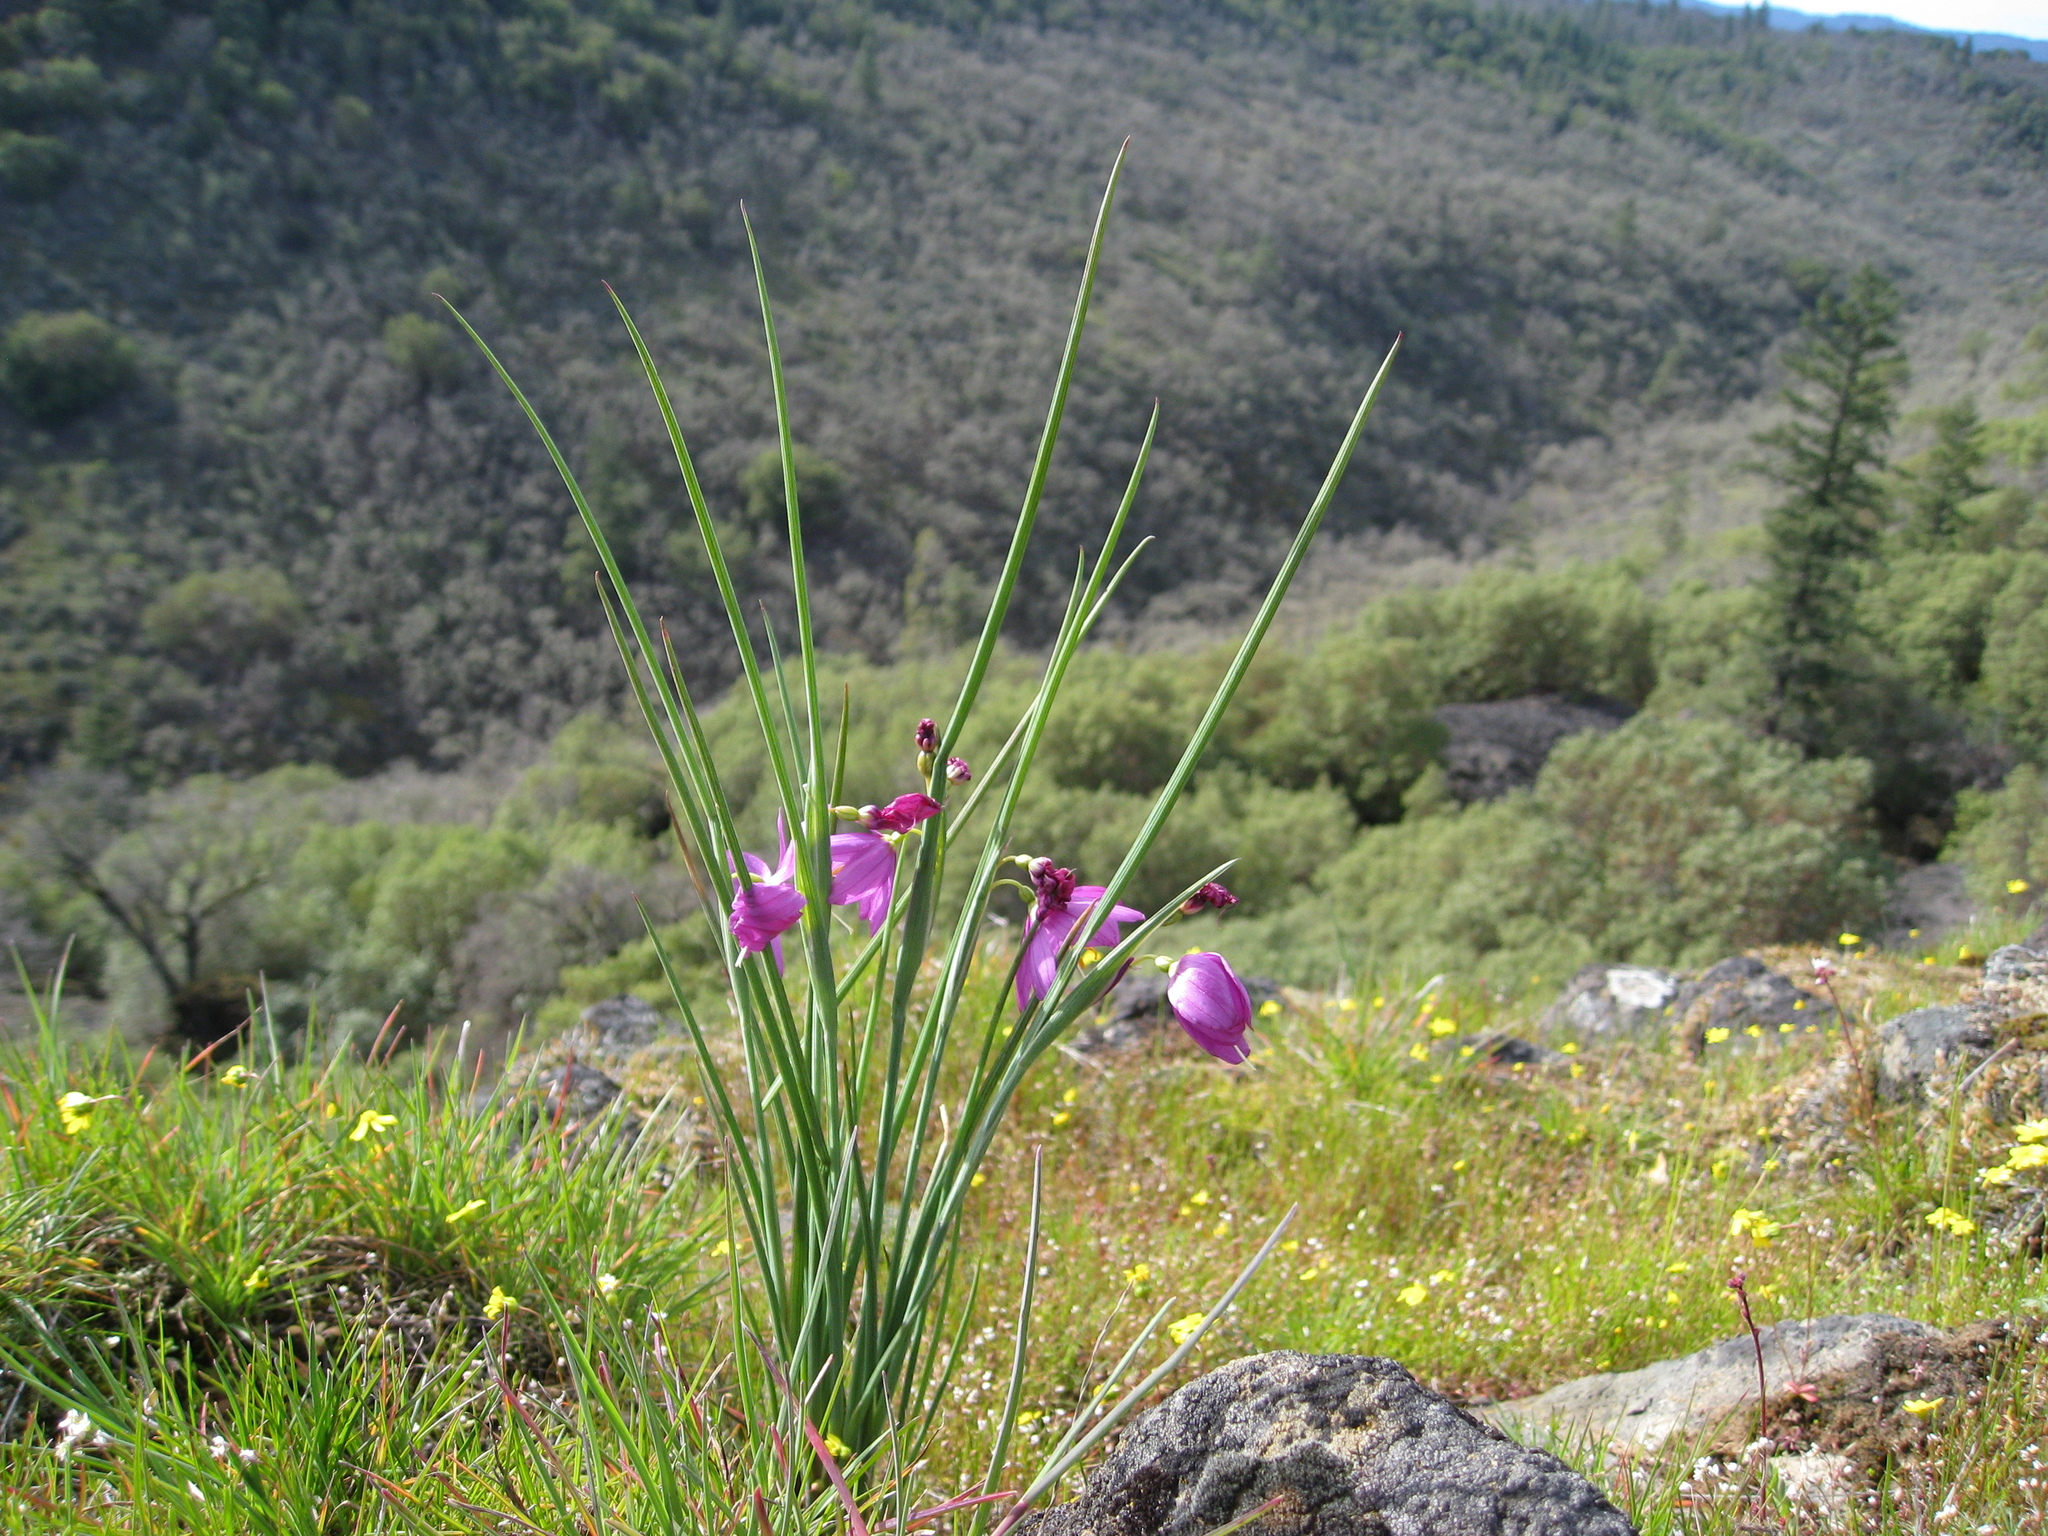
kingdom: Plantae
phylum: Tracheophyta
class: Liliopsida
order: Asparagales
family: Iridaceae
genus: Olsynium
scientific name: Olsynium douglasii
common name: Douglas' grasswidow
